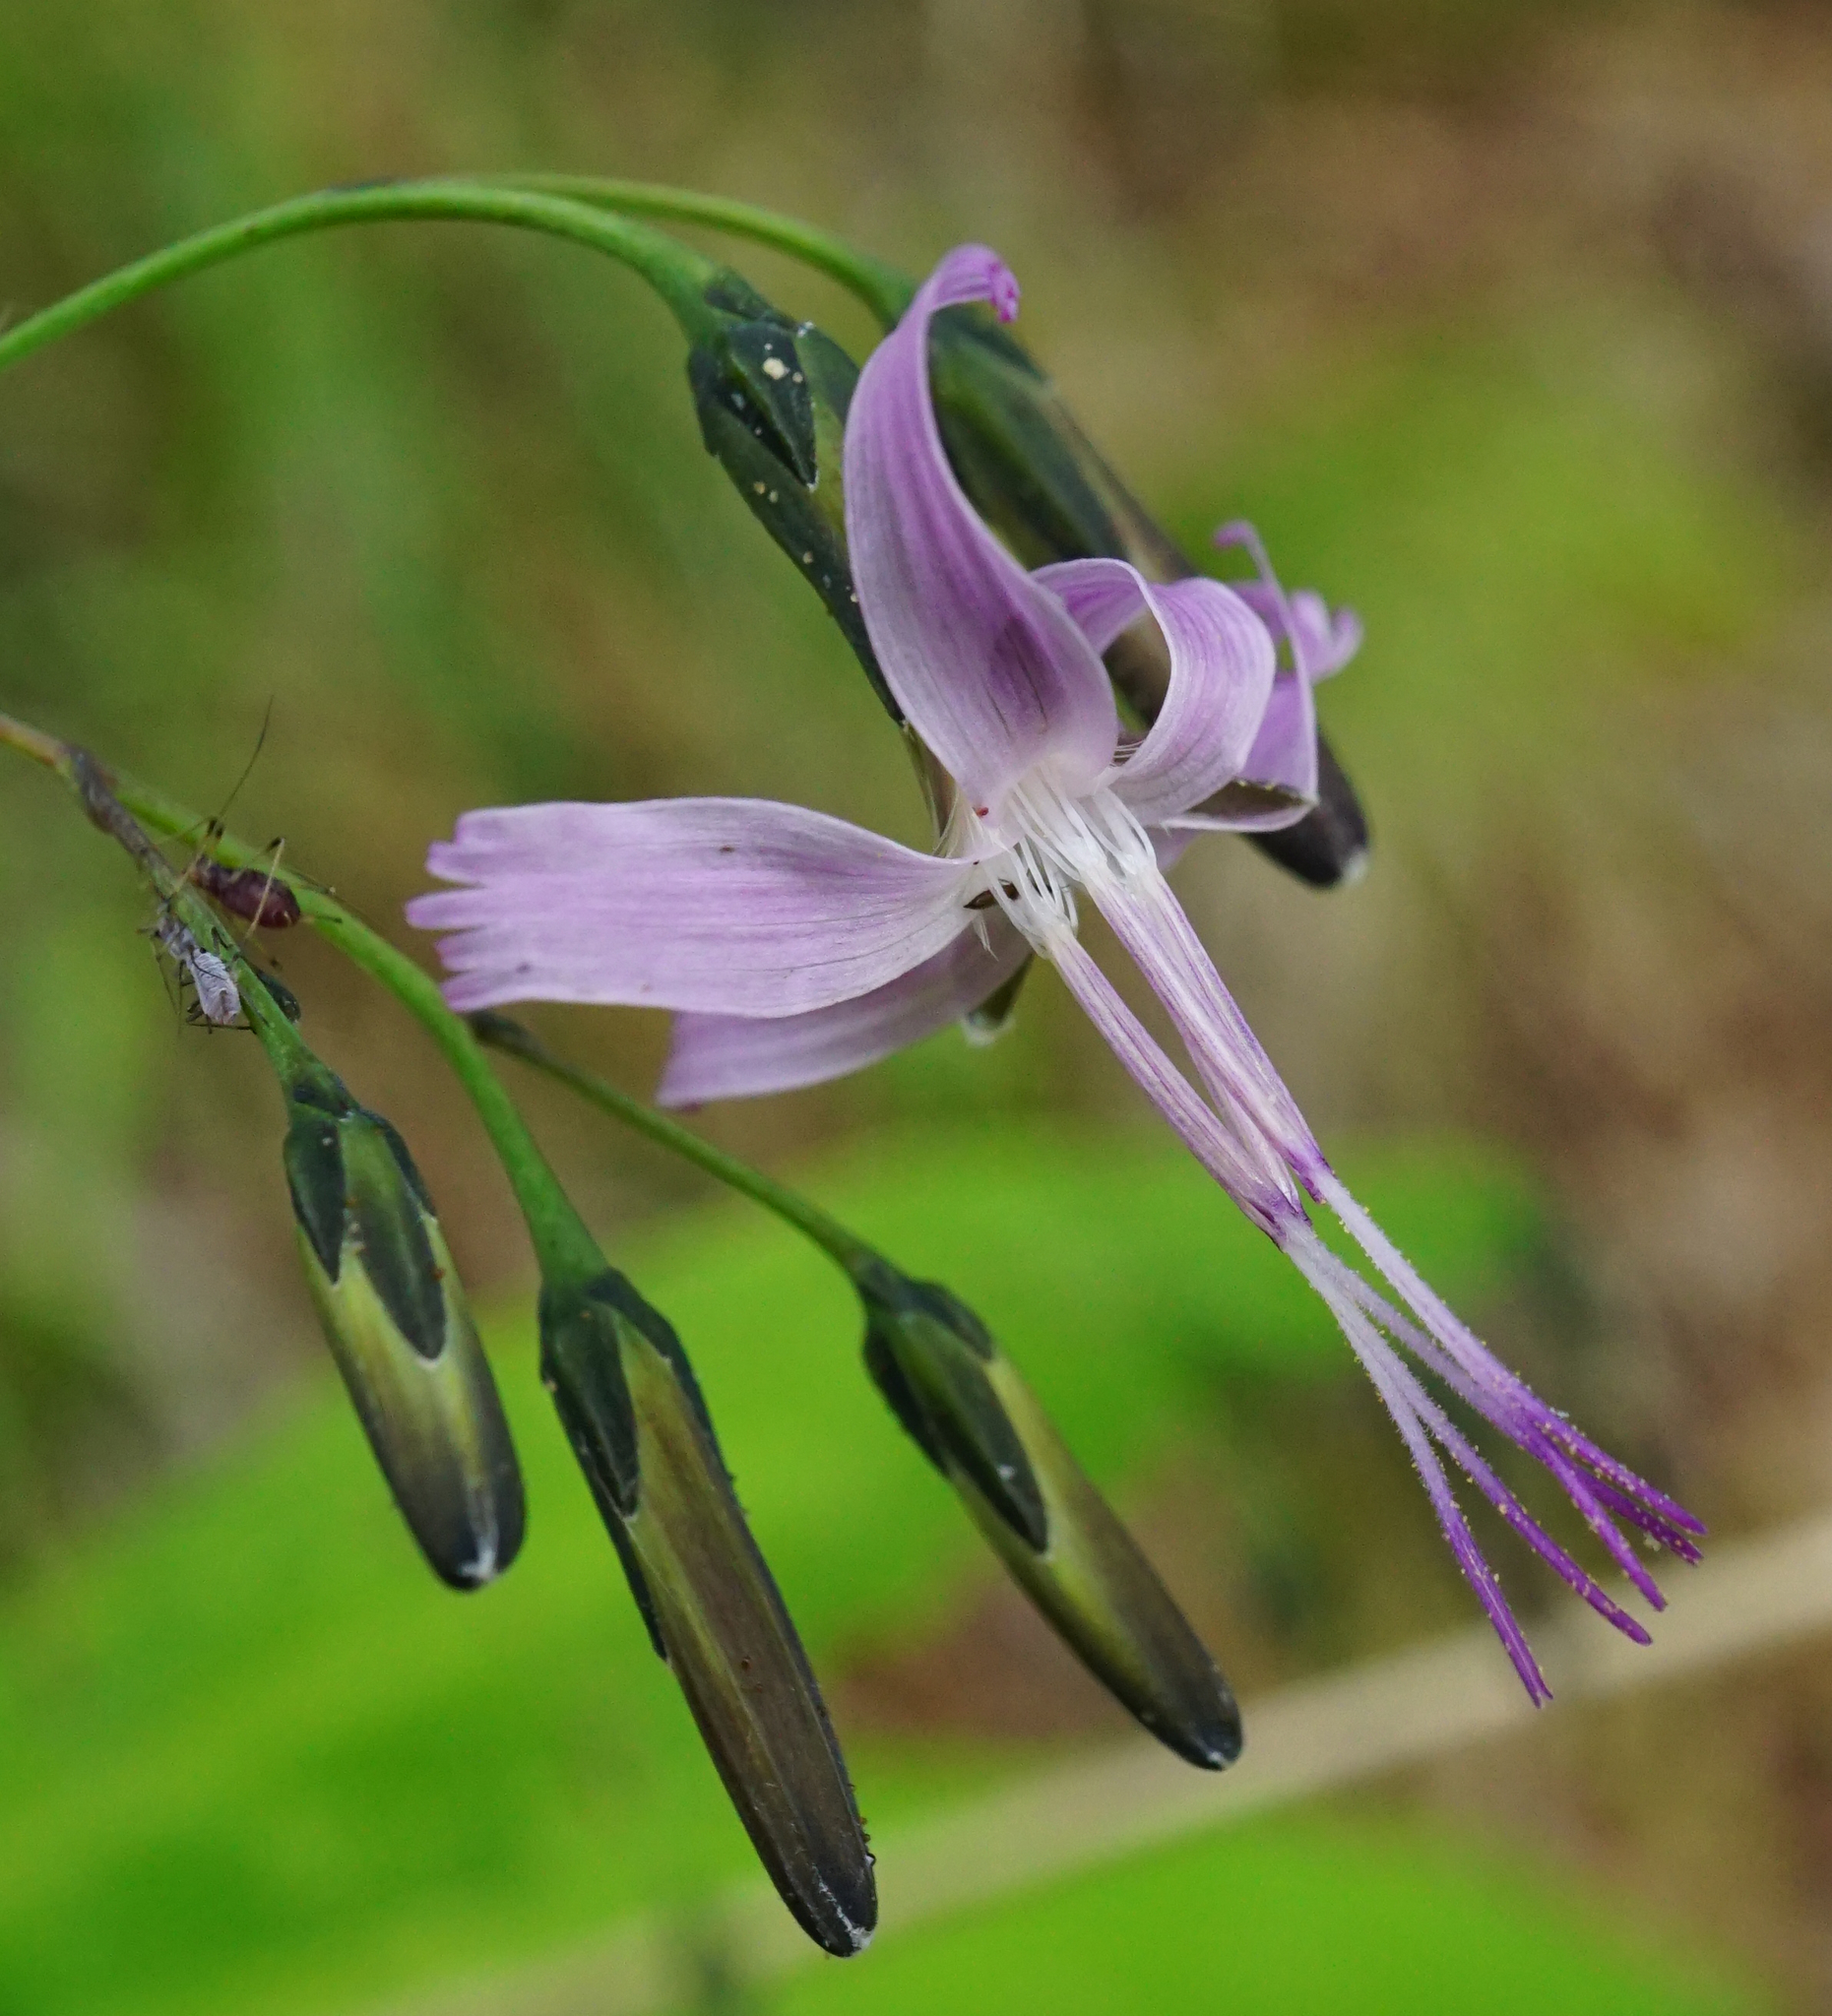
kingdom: Plantae
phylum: Tracheophyta
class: Magnoliopsida
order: Asterales
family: Asteraceae
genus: Prenanthes
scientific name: Prenanthes purpurea
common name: Purple lettuce
